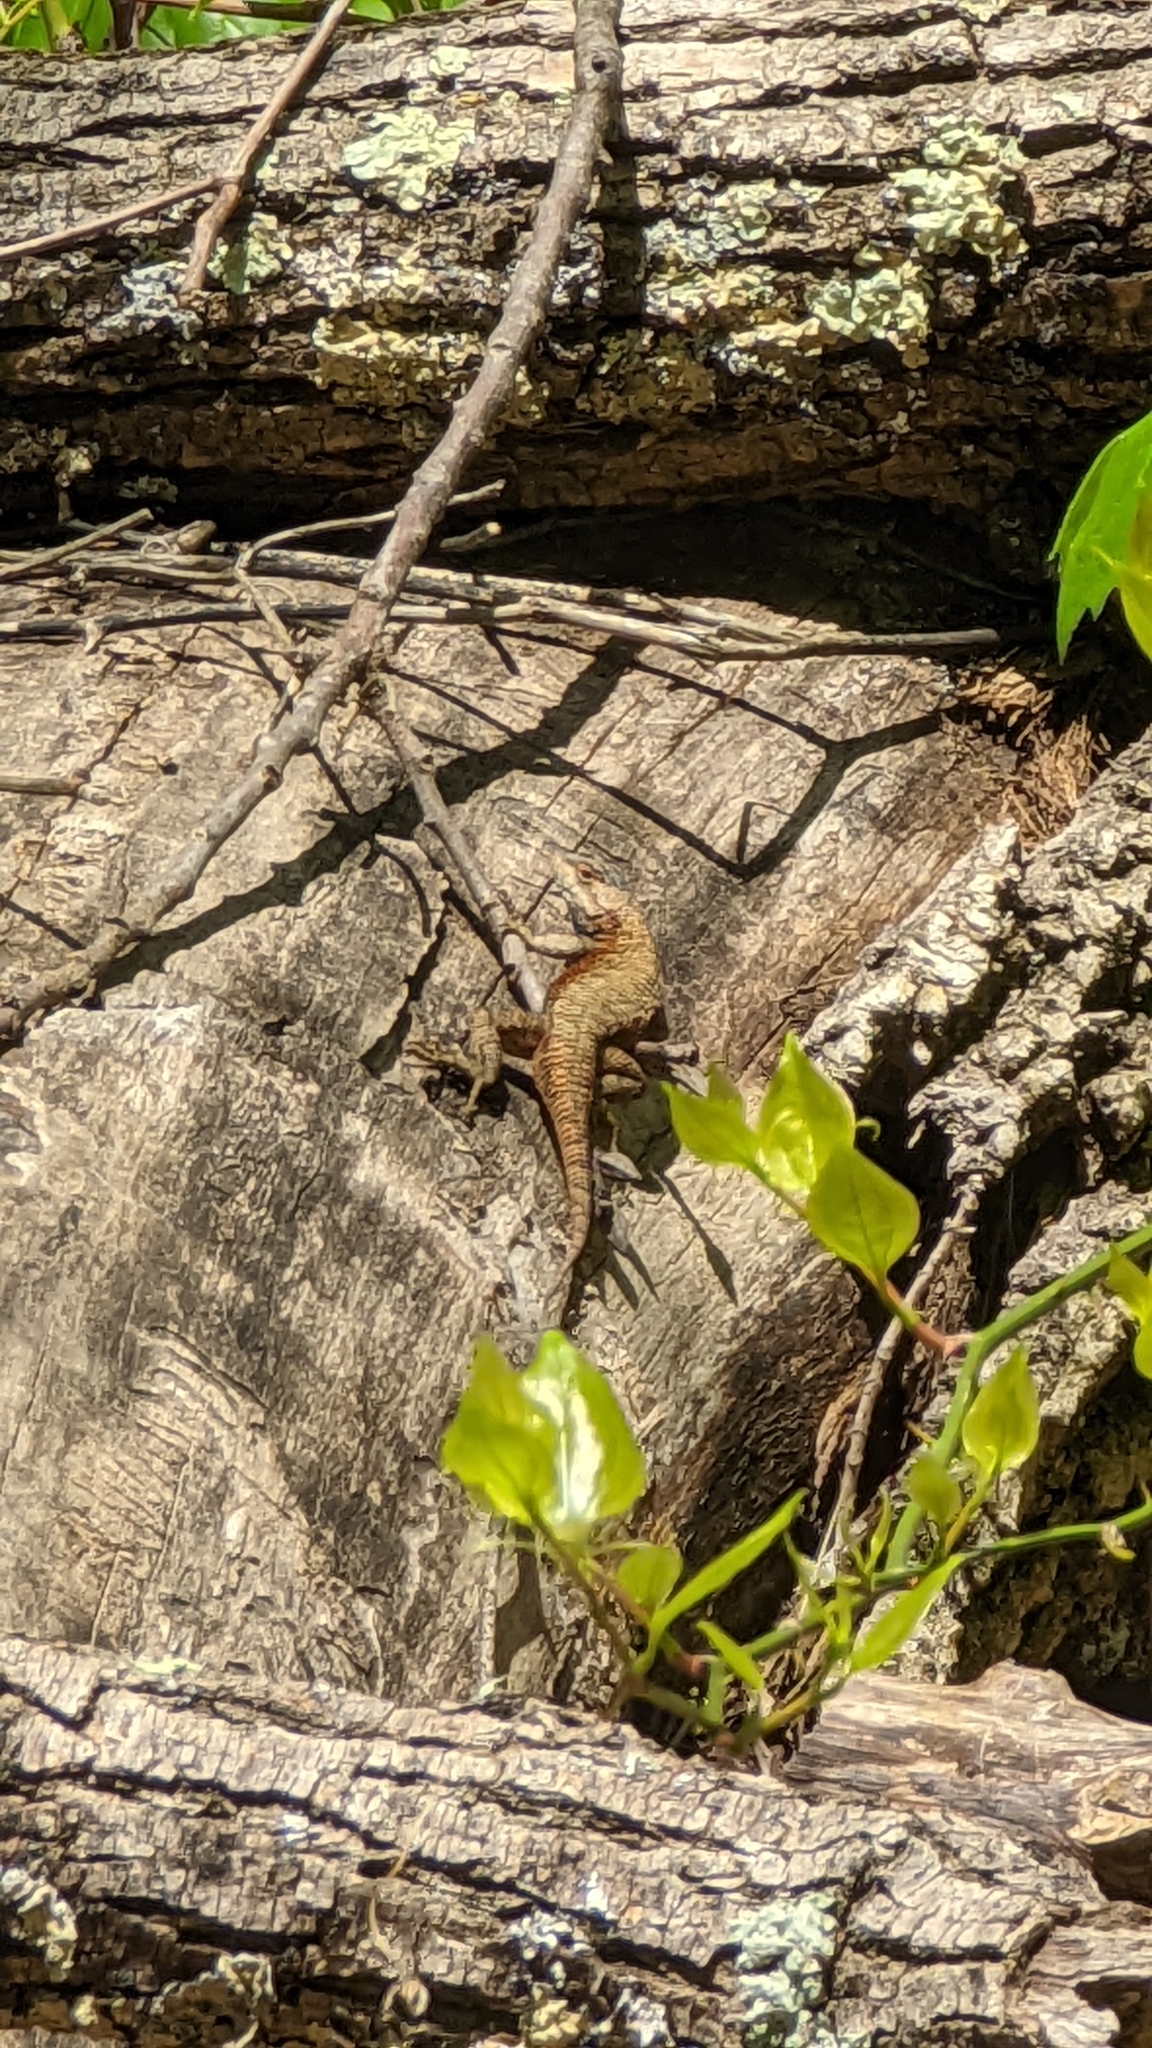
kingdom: Animalia
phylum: Chordata
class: Squamata
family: Phrynosomatidae
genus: Sceloporus
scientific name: Sceloporus undulatus
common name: Eastern fence lizard
